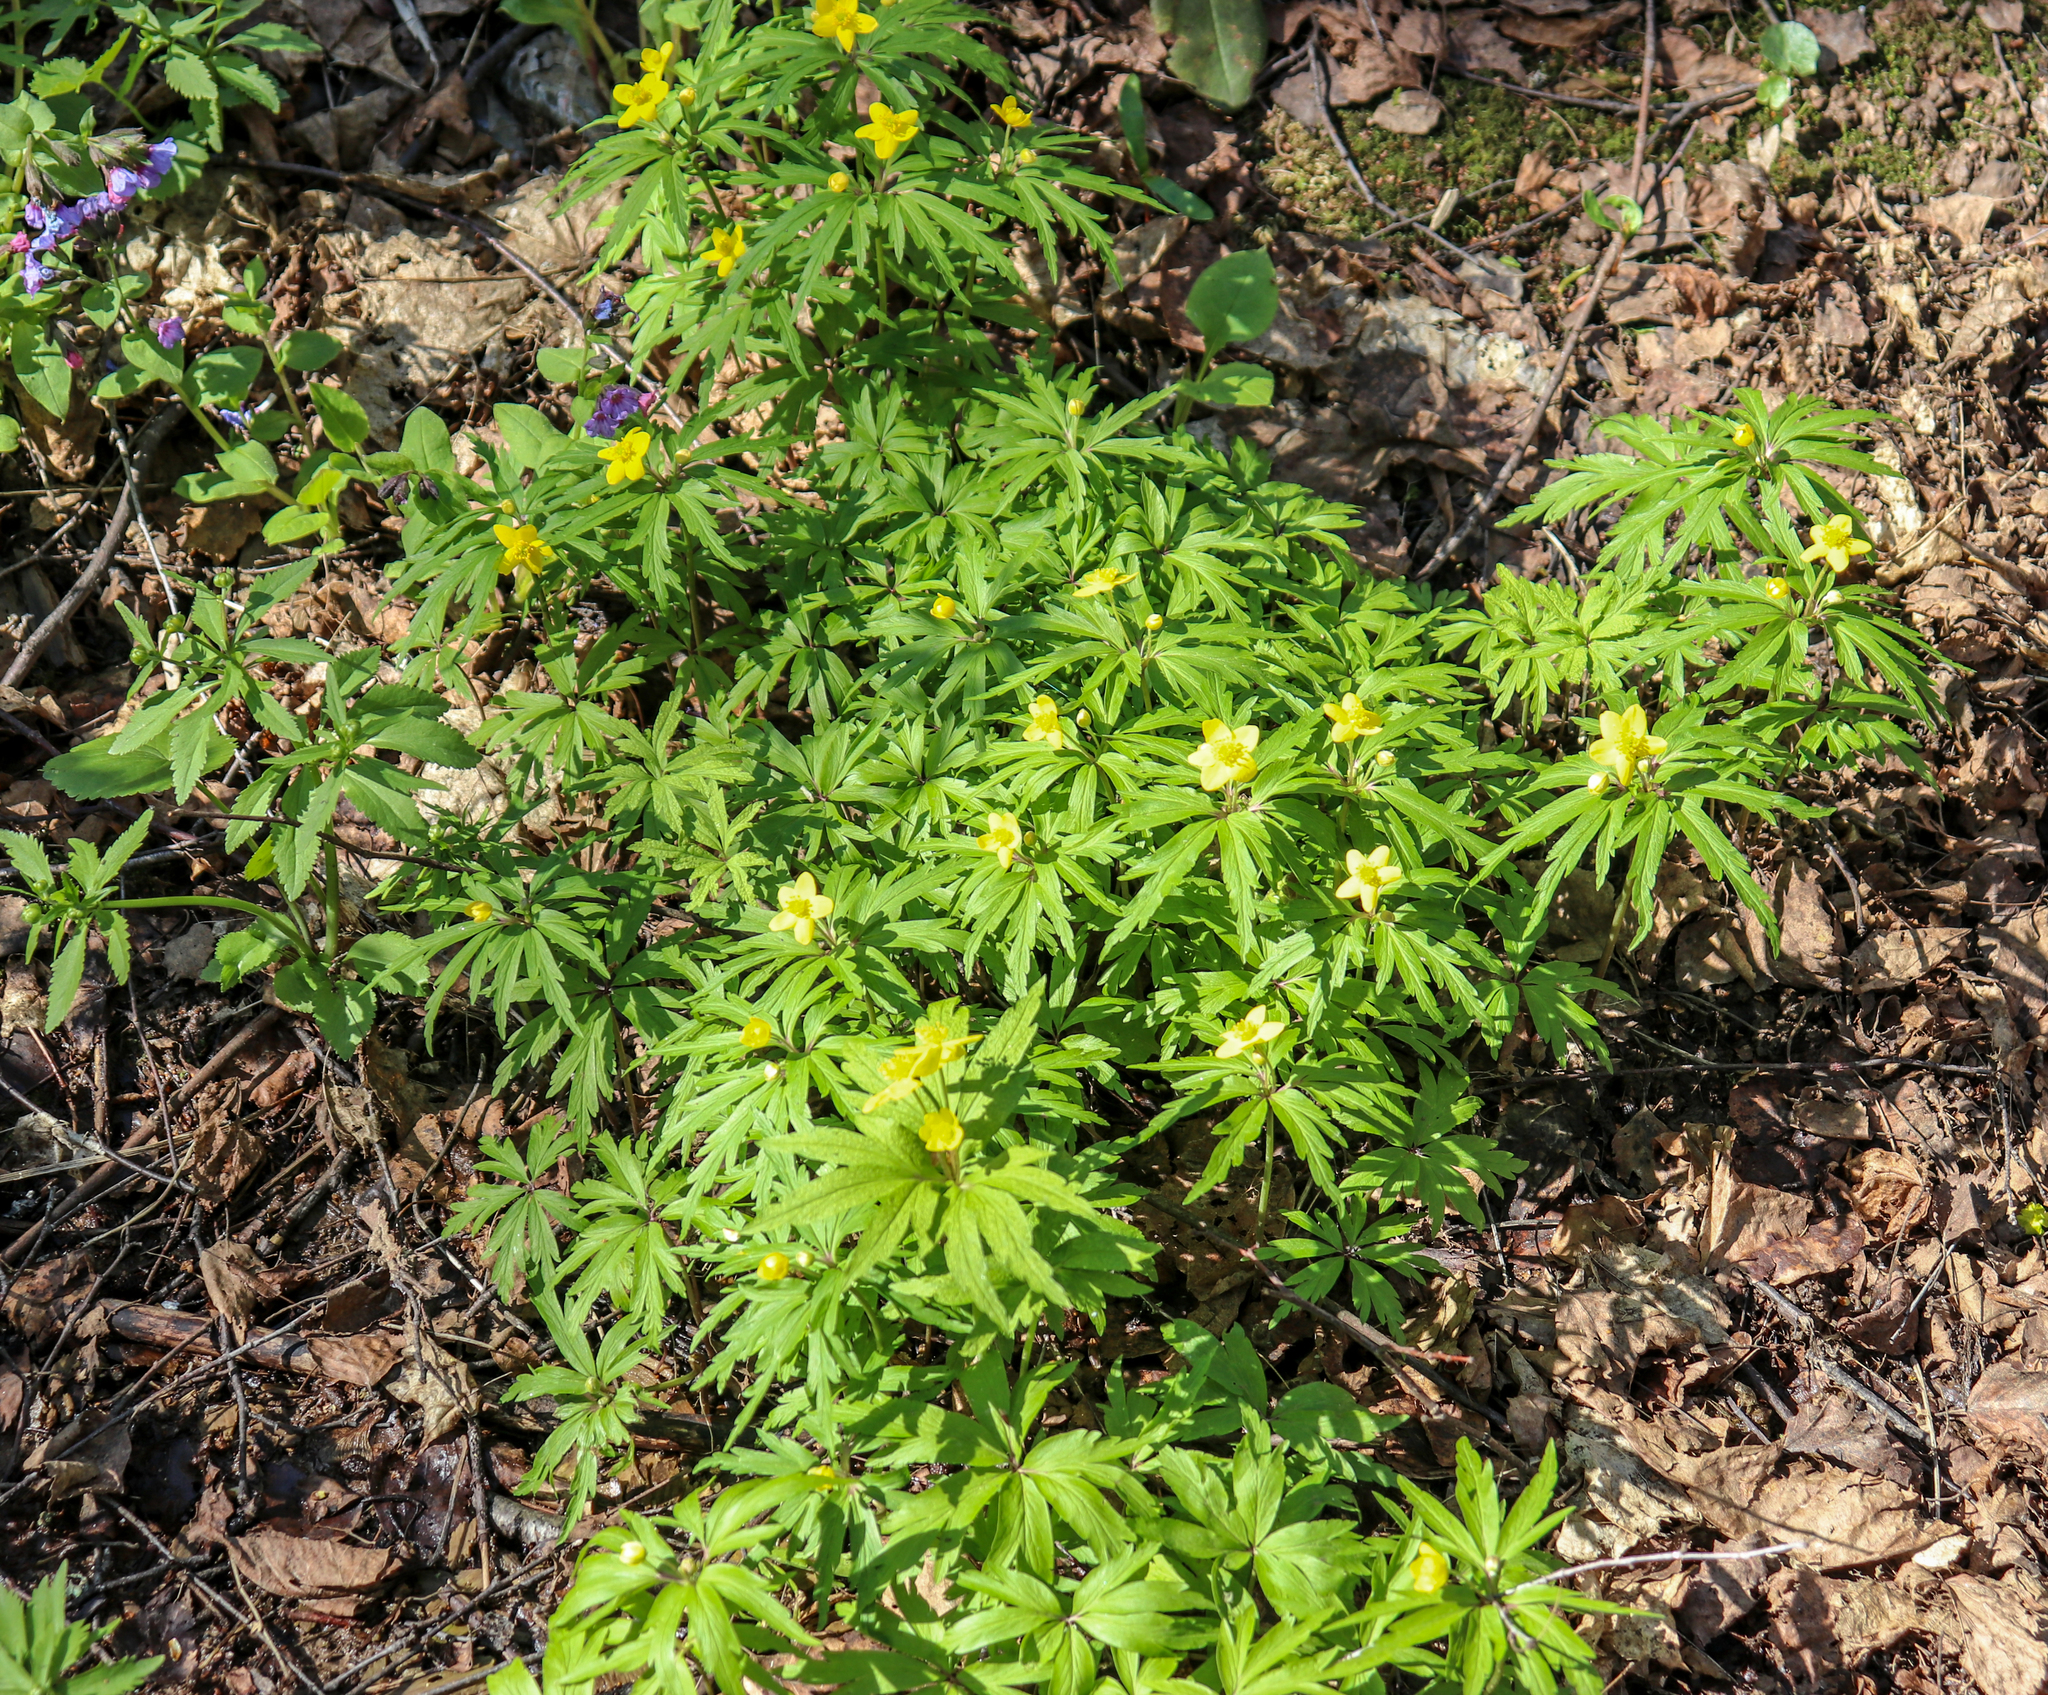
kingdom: Plantae
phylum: Tracheophyta
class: Magnoliopsida
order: Ranunculales
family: Ranunculaceae
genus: Anemone
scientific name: Anemone ranunculoides
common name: Yellow anemone
